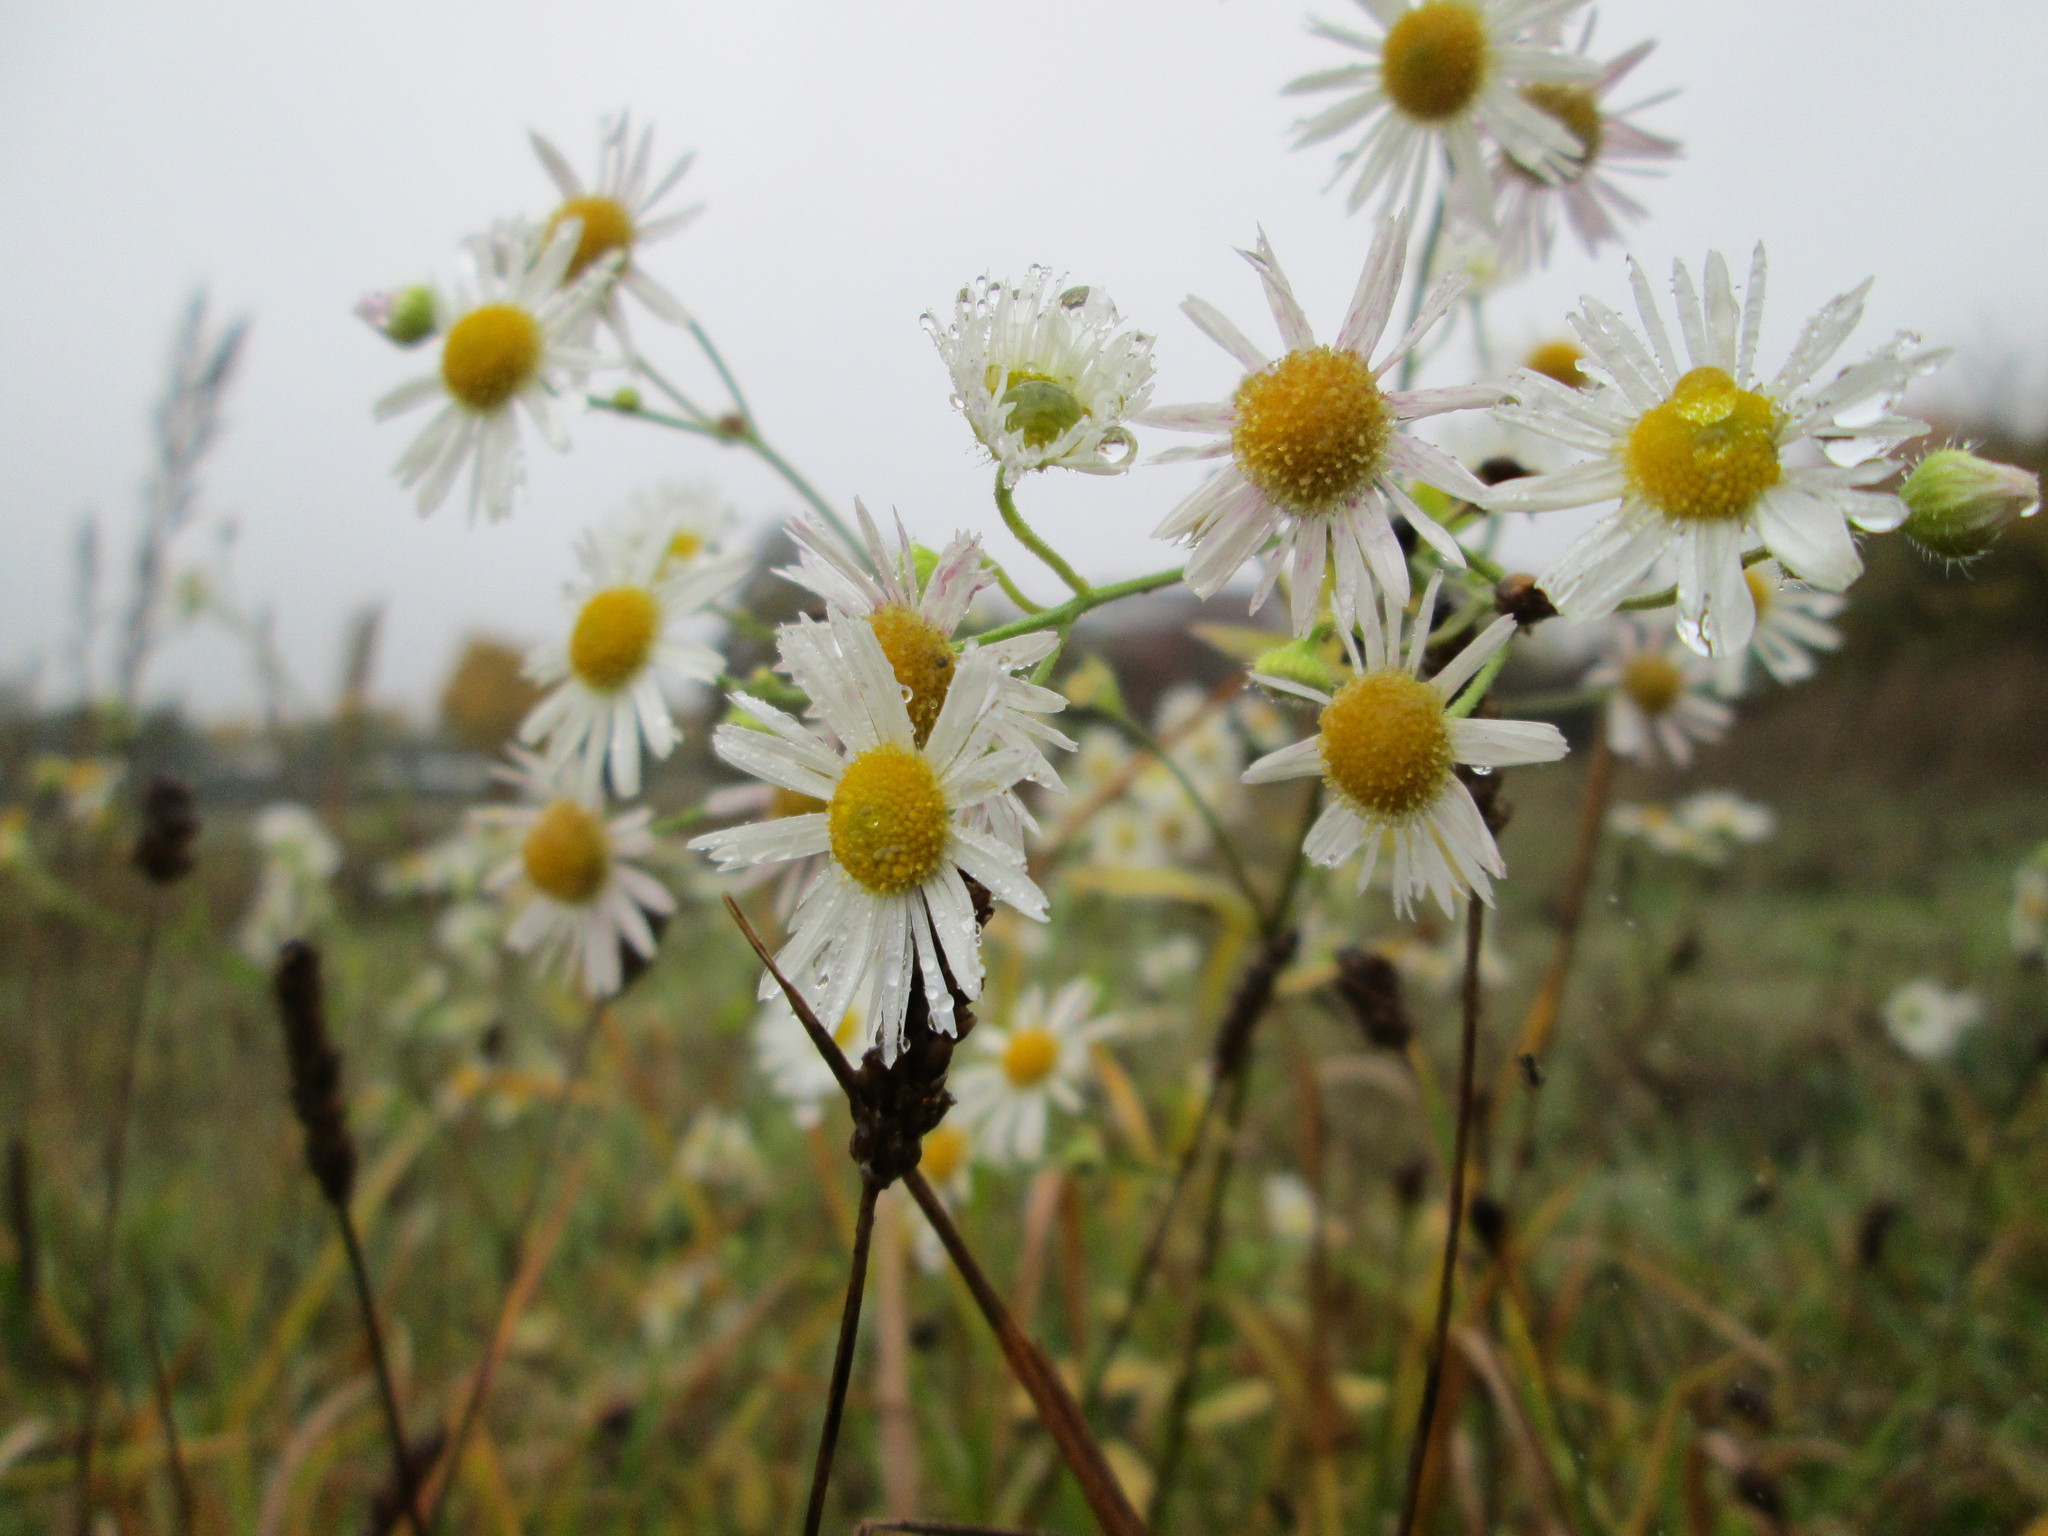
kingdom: Plantae
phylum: Tracheophyta
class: Magnoliopsida
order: Asterales
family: Asteraceae
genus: Erigeron
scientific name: Erigeron annuus
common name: Tall fleabane
